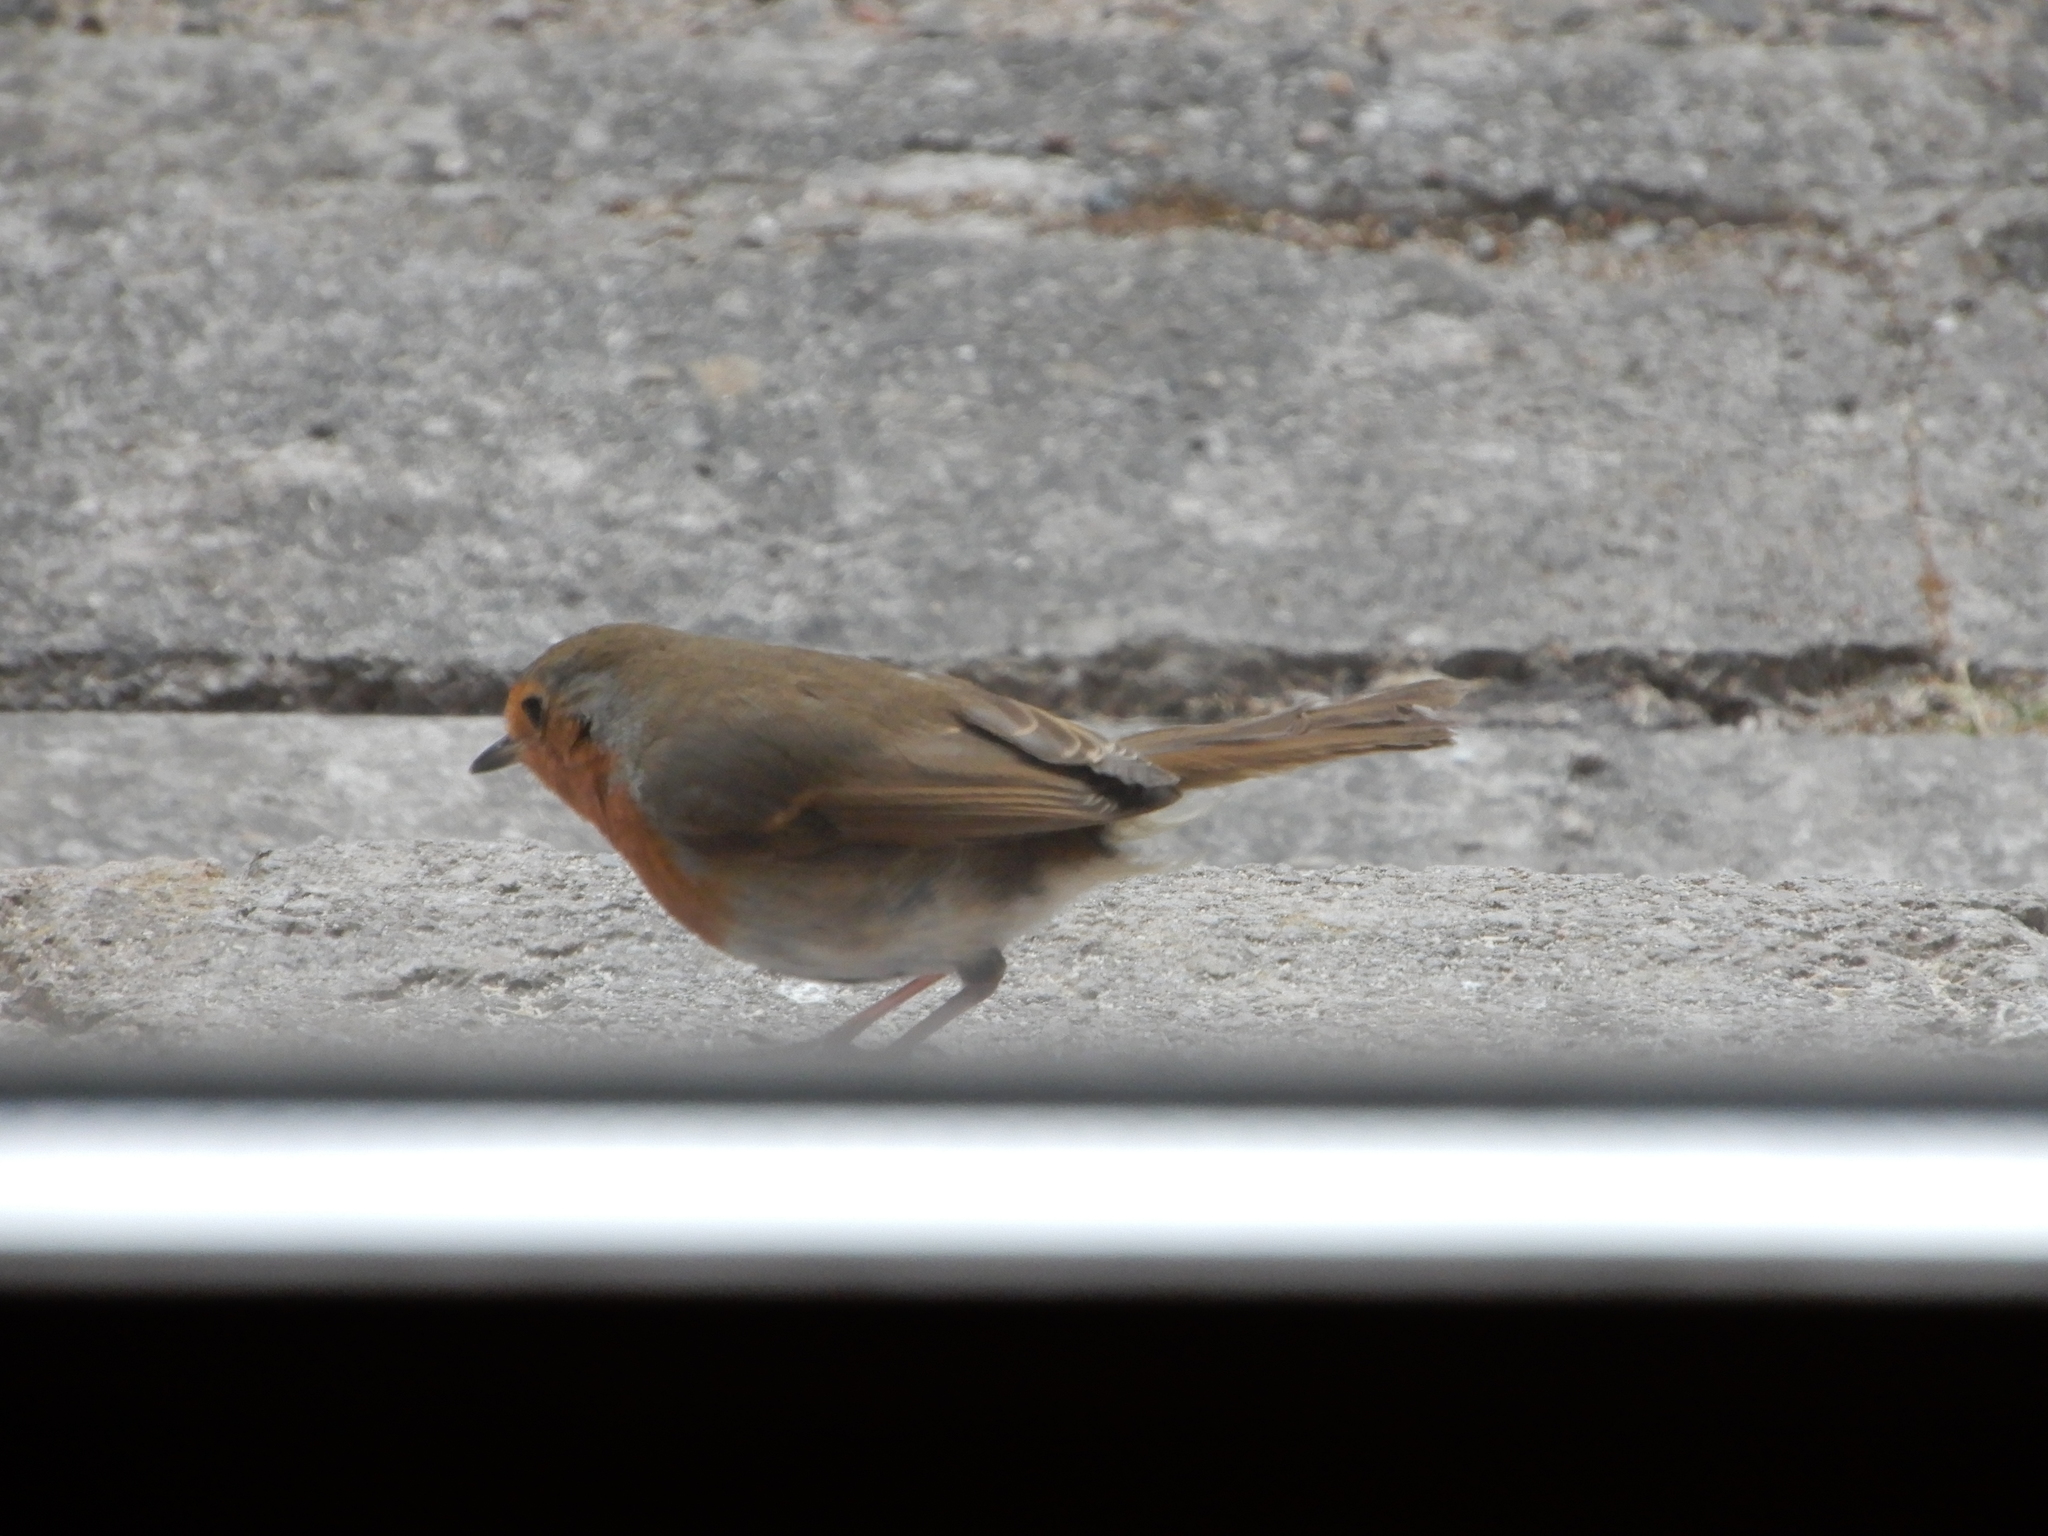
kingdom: Animalia
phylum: Chordata
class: Aves
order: Passeriformes
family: Muscicapidae
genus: Erithacus
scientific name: Erithacus rubecula
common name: European robin
